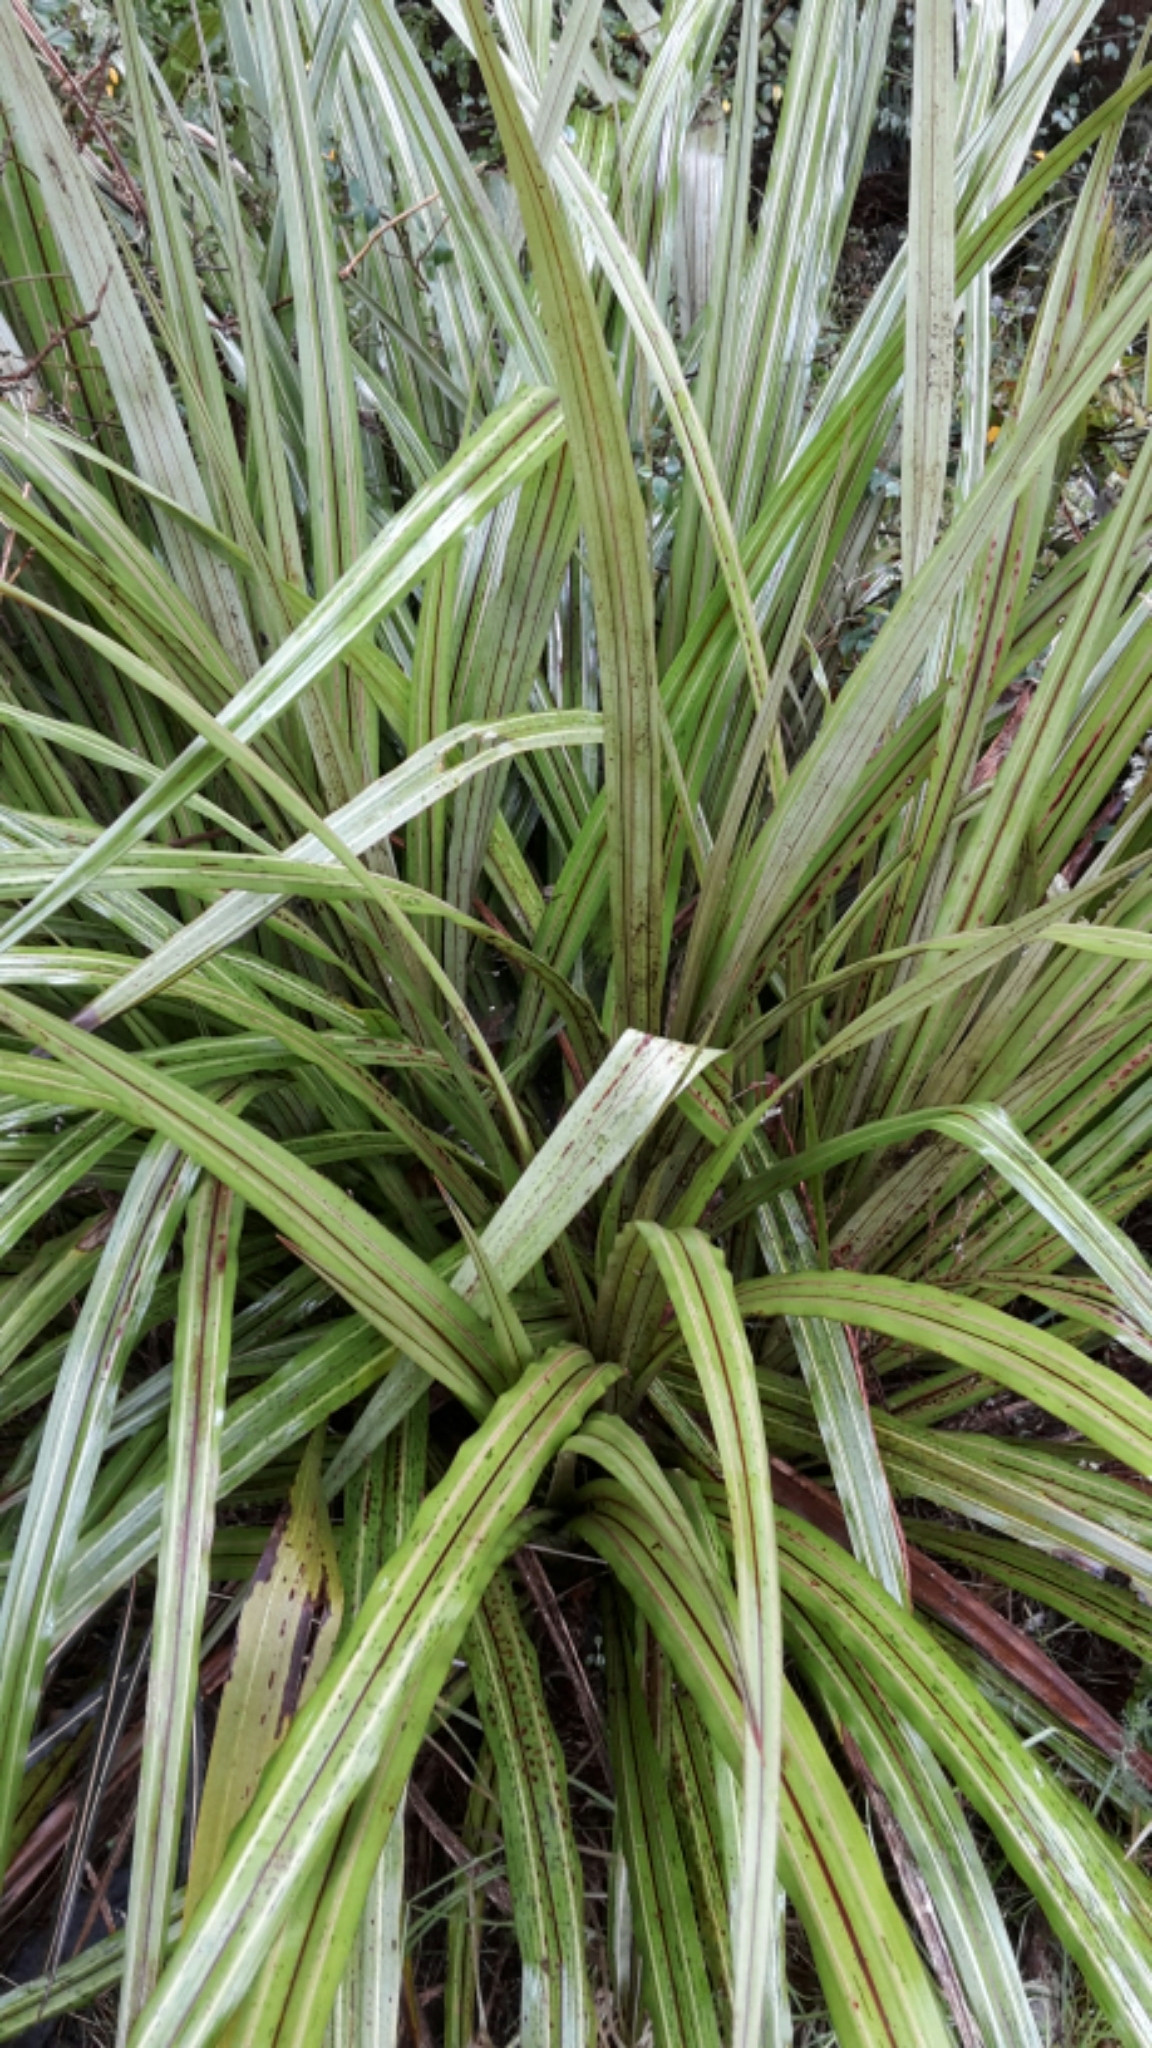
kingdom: Plantae
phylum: Tracheophyta
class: Liliopsida
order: Asparagales
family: Asteliaceae
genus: Astelia
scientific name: Astelia fragrans
